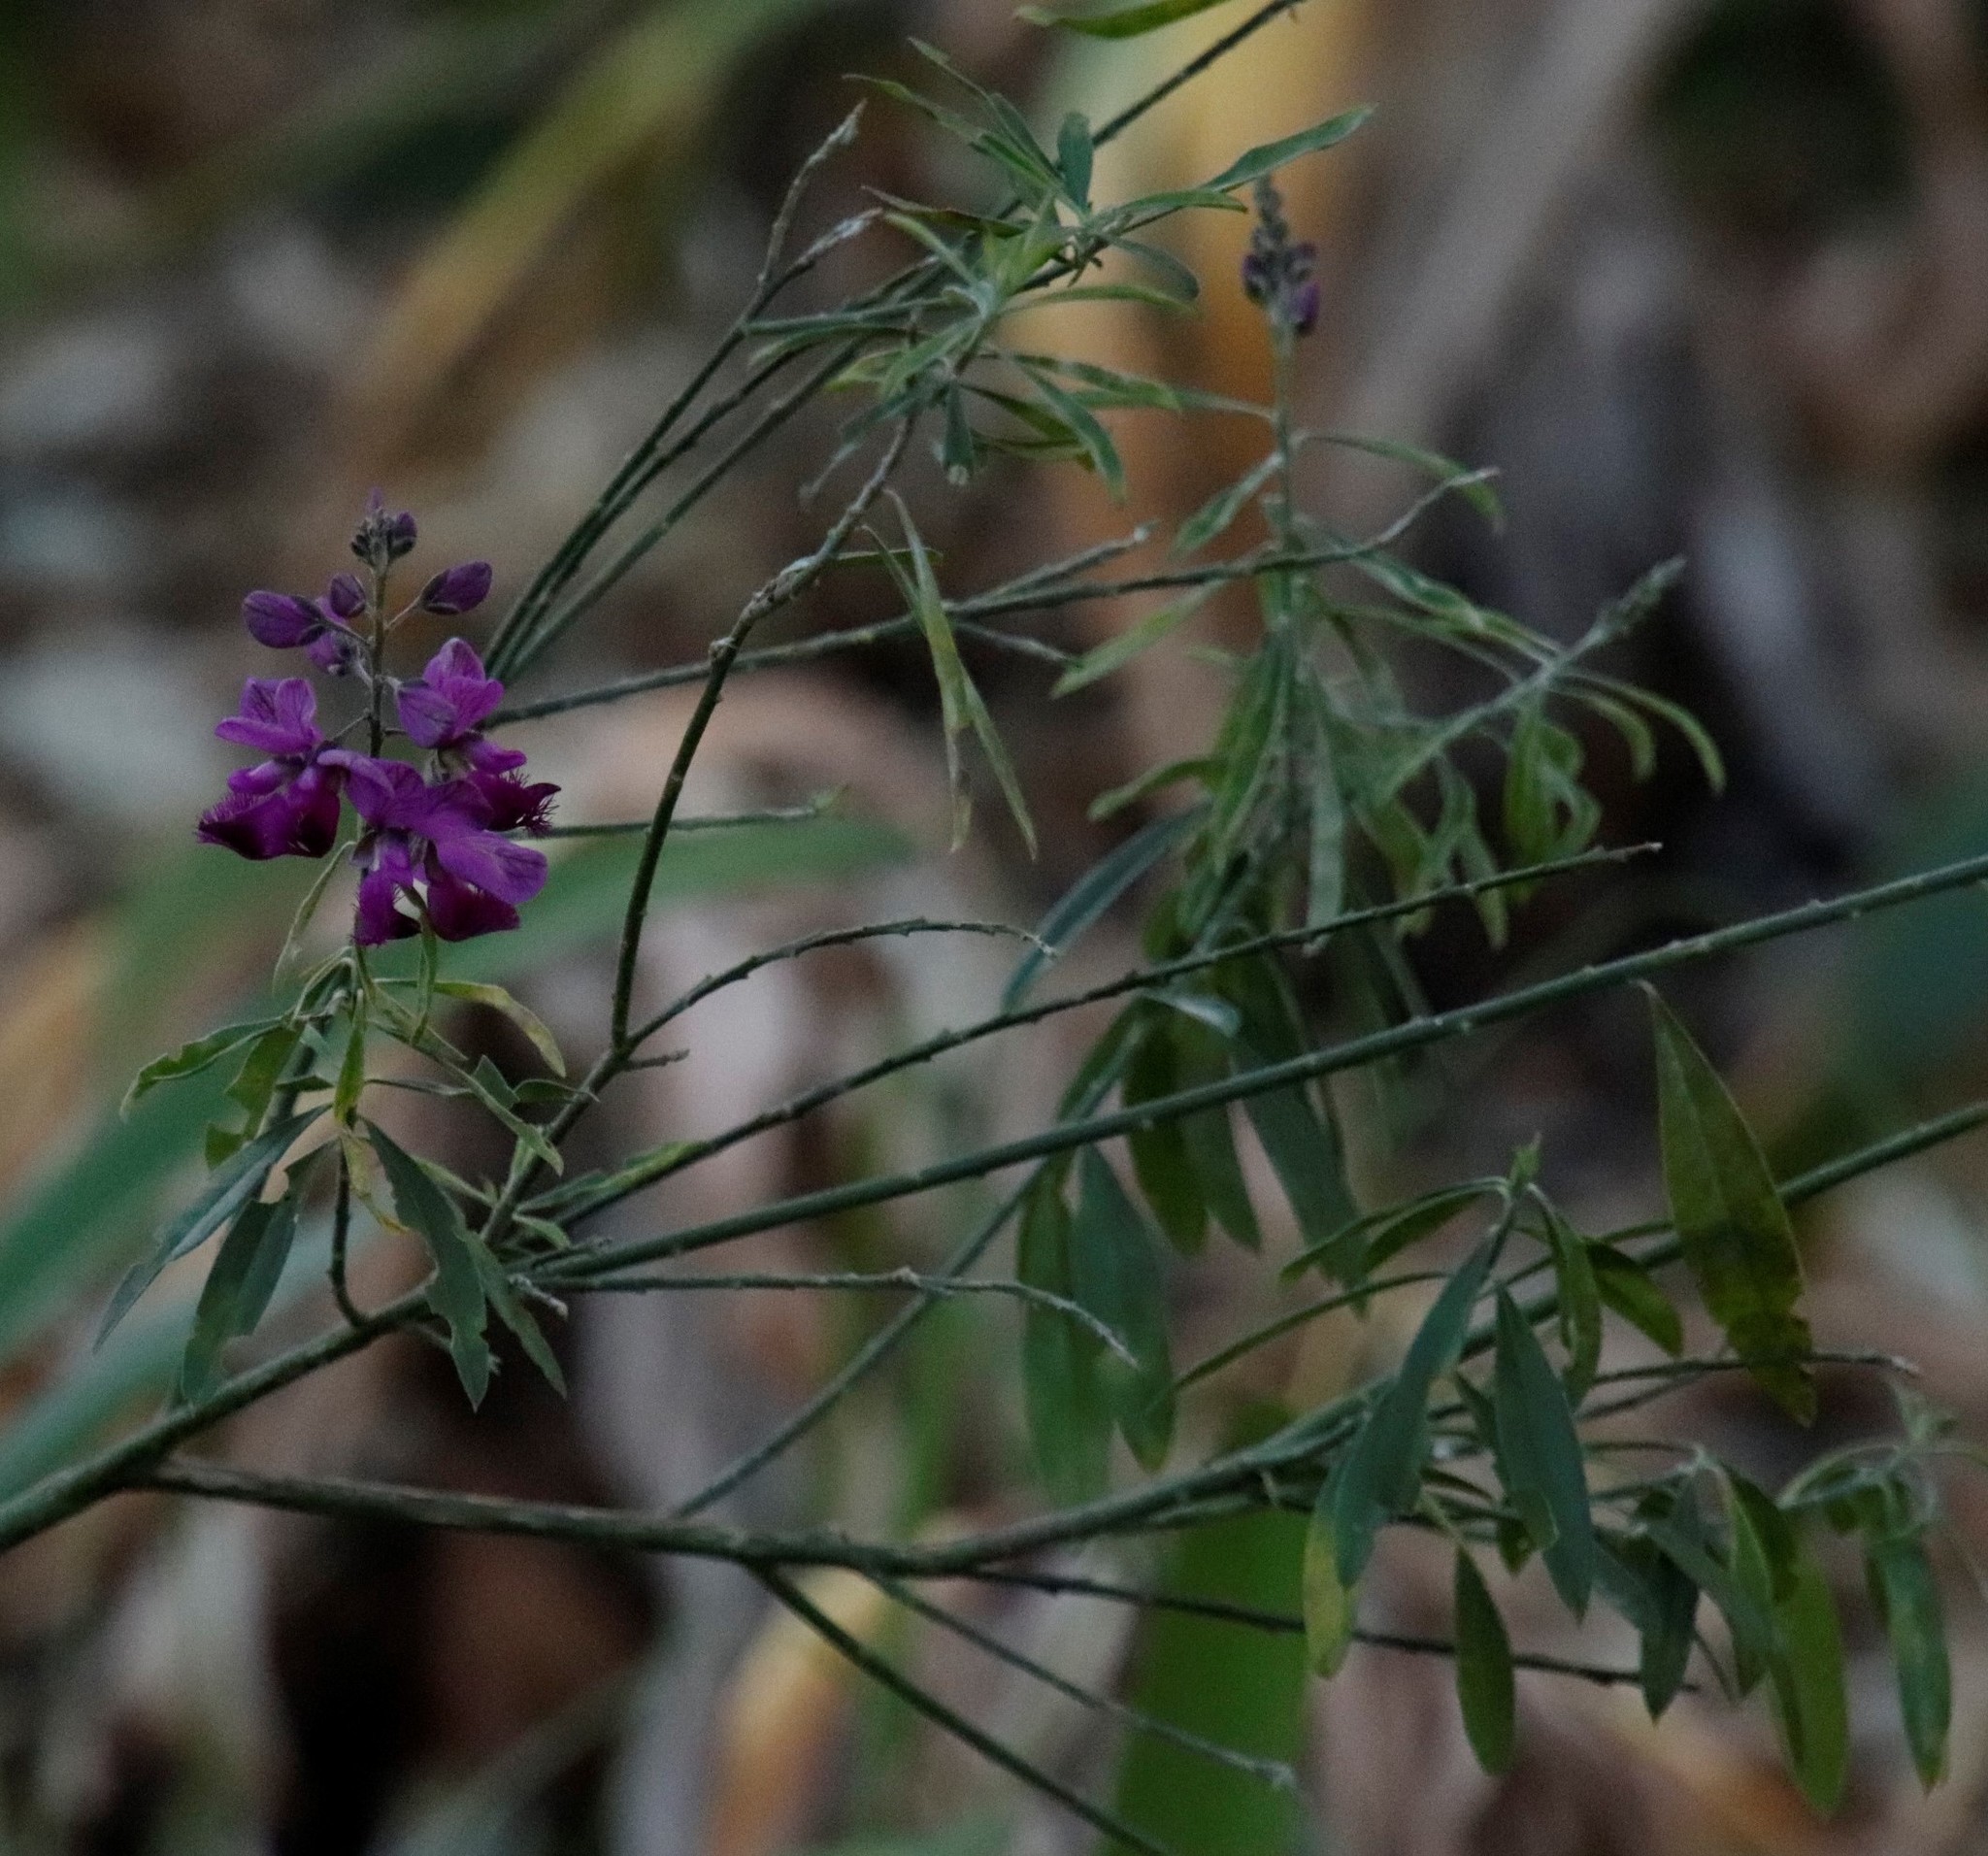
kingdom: Plantae
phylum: Tracheophyta
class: Magnoliopsida
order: Fabales
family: Polygalaceae
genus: Polygala
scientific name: Polygala virgata
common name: Milkwort
